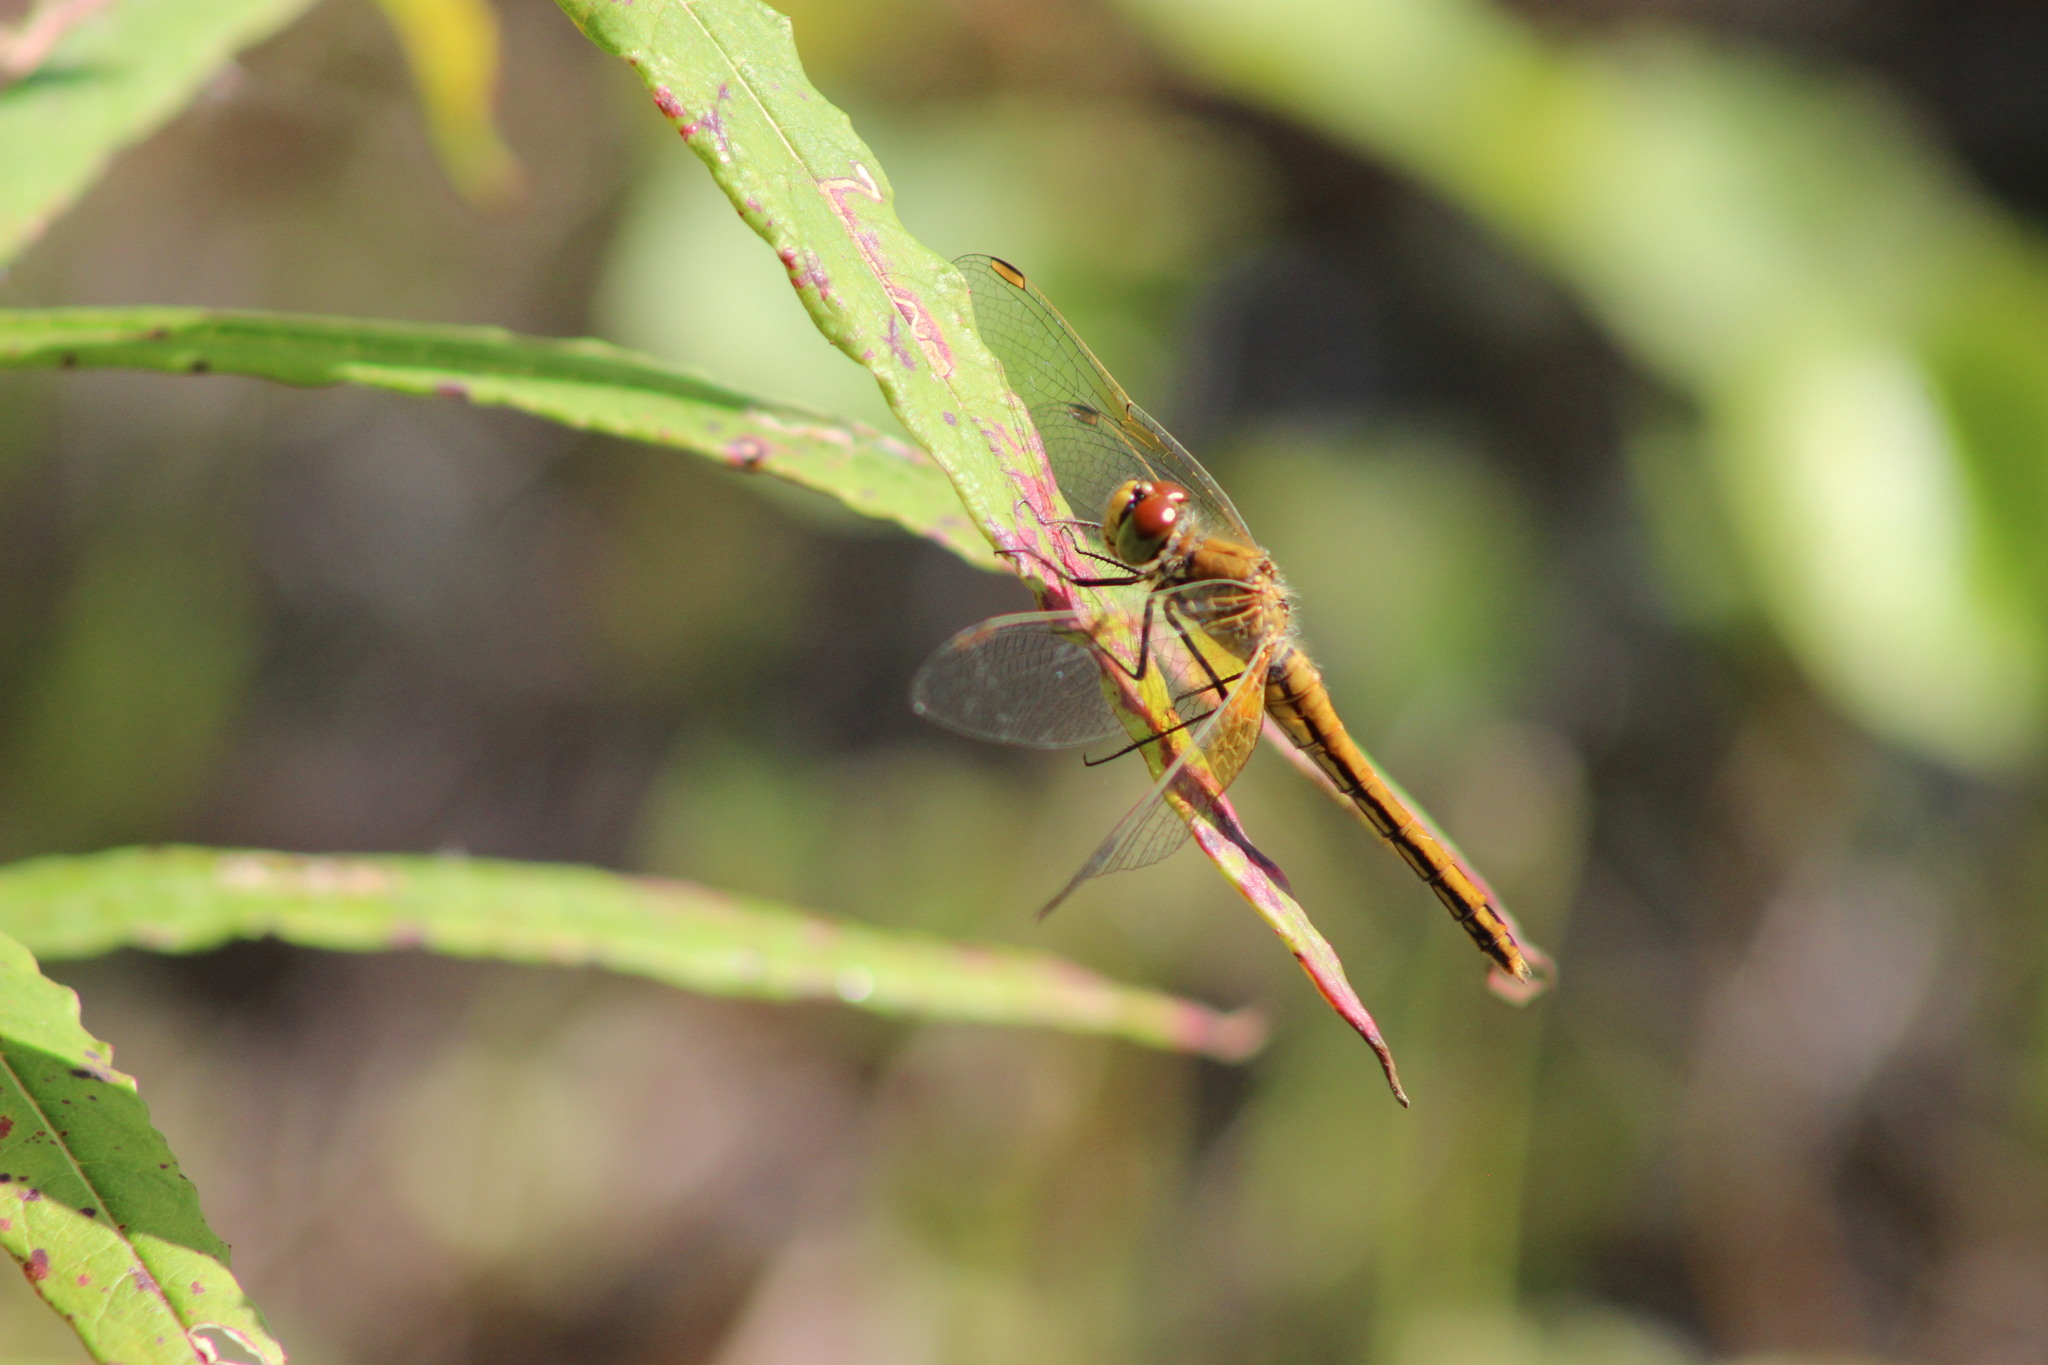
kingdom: Animalia
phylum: Arthropoda
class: Insecta
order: Odonata
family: Libellulidae
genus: Sympetrum
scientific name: Sympetrum flaveolum
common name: Yellow-winged darter
